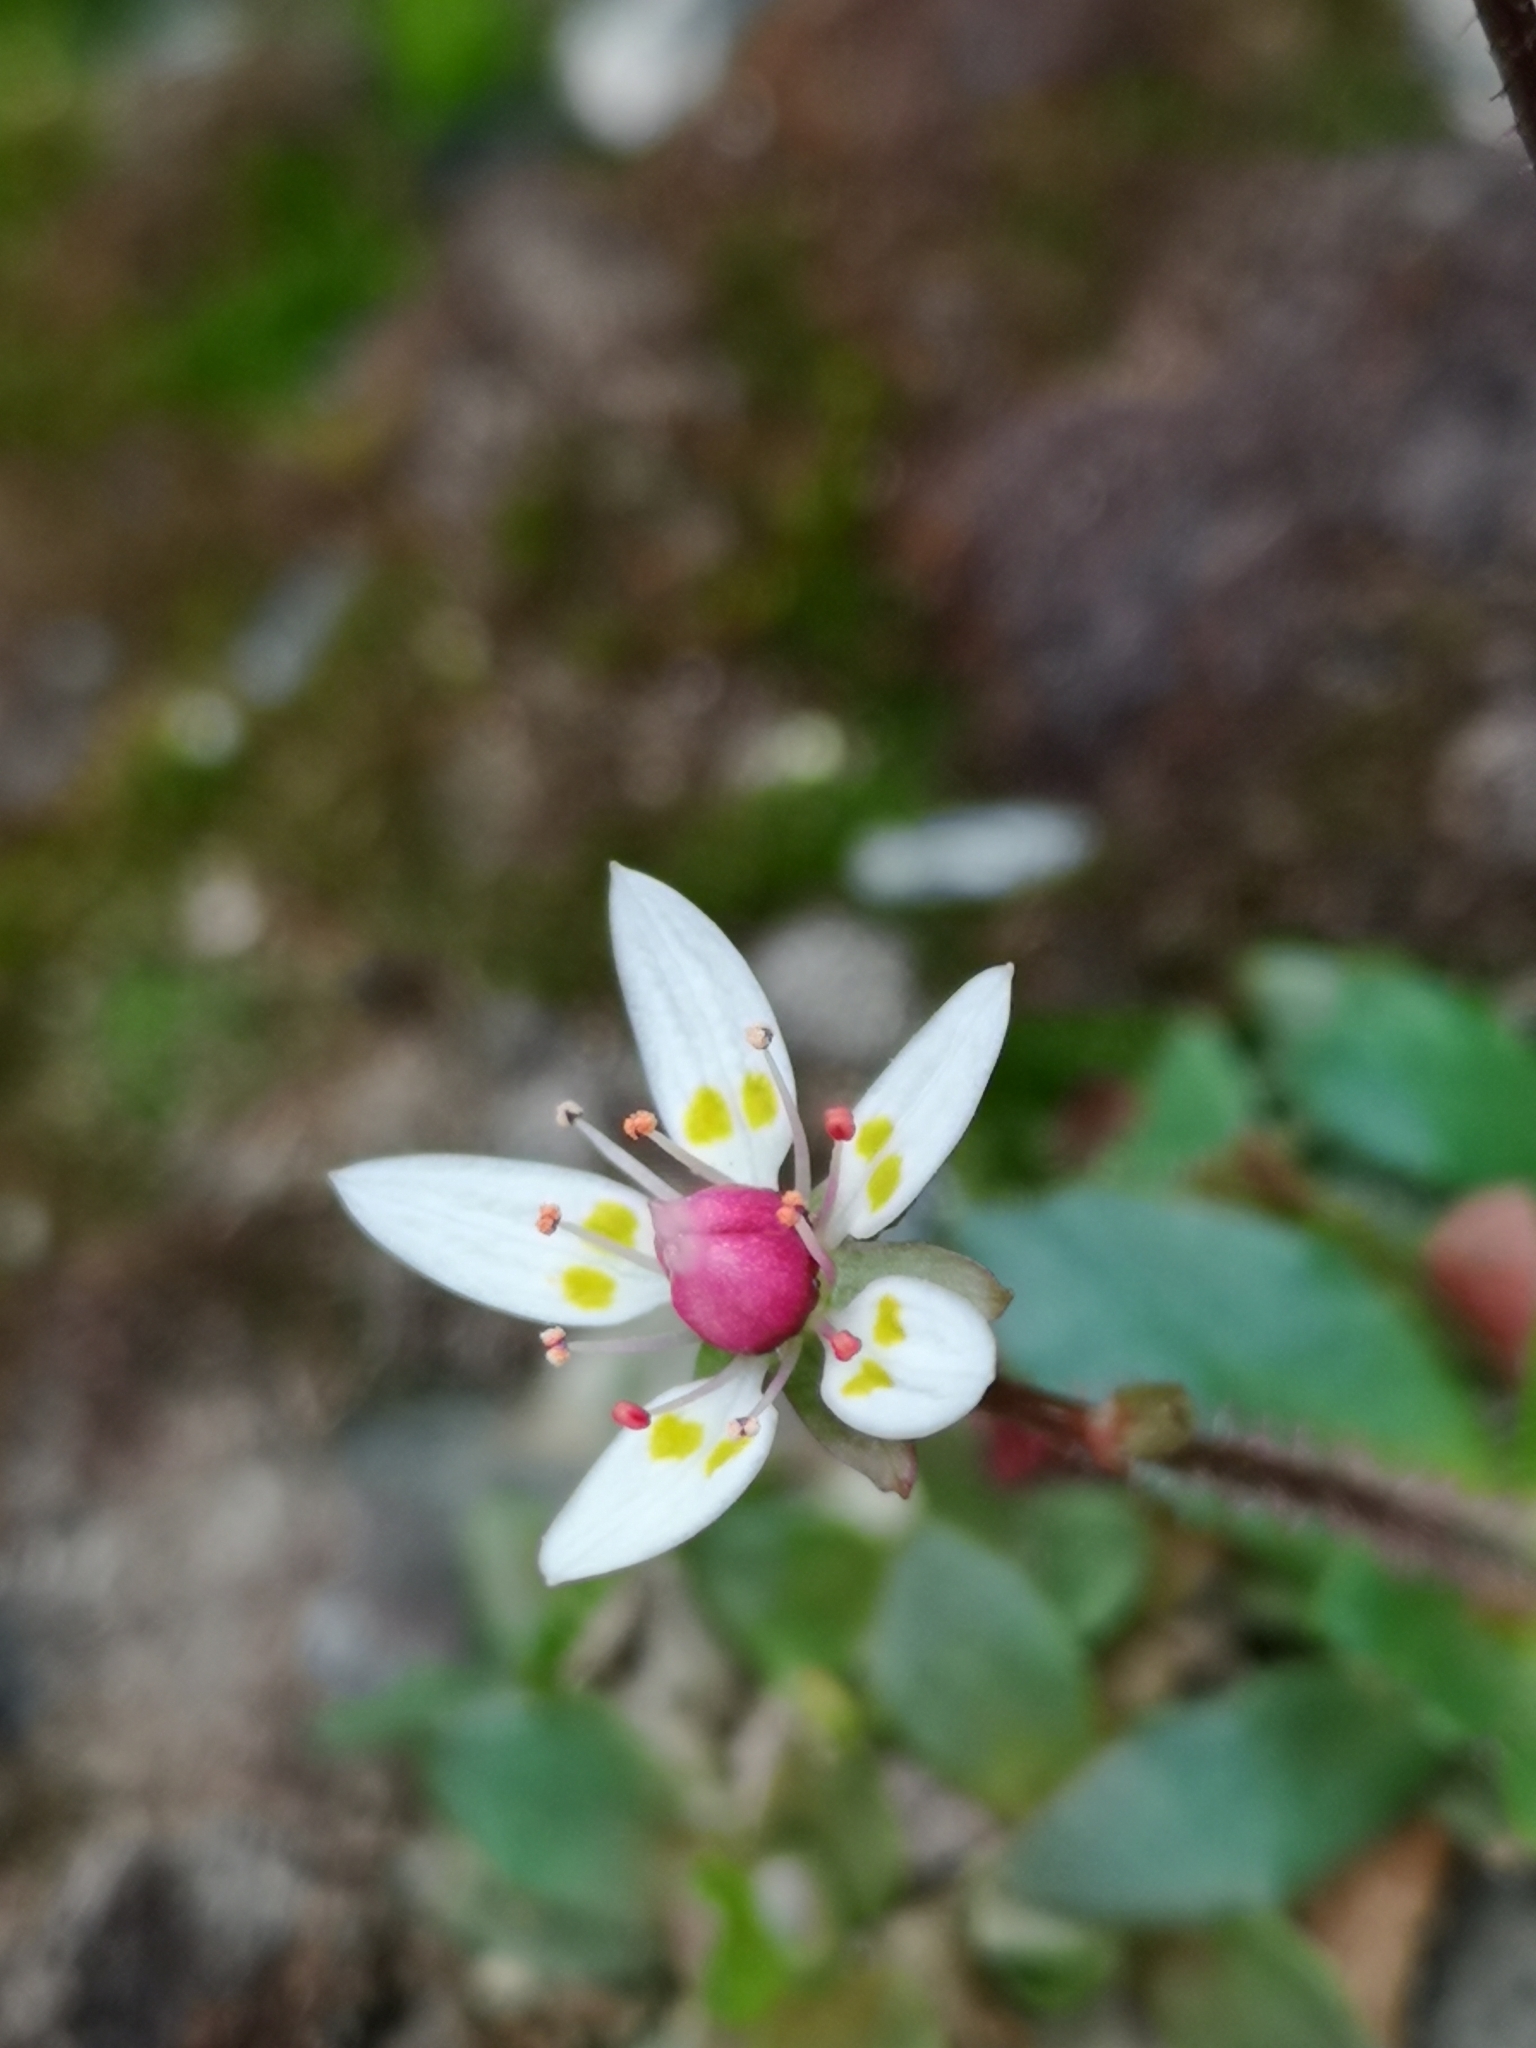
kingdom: Plantae
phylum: Tracheophyta
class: Magnoliopsida
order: Saxifragales
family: Saxifragaceae
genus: Micranthes
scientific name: Micranthes stellaris
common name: Starry saxifrage
